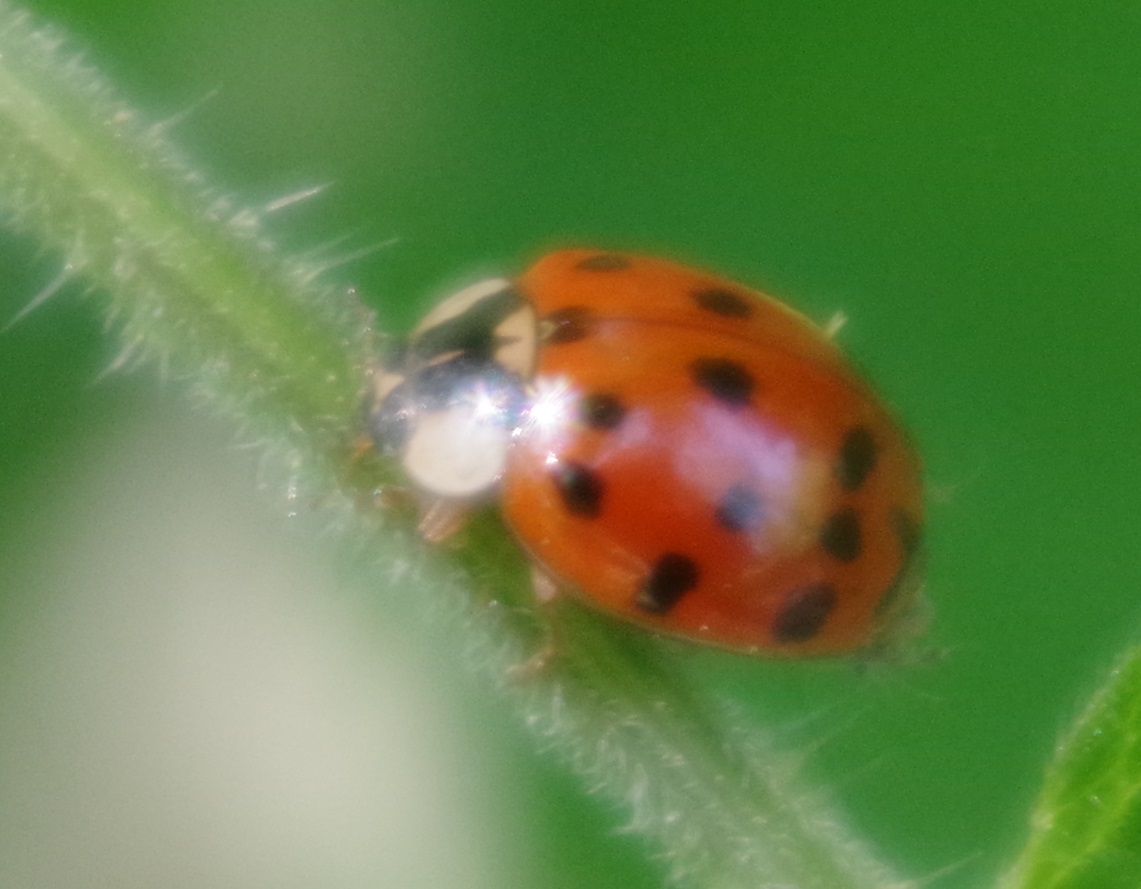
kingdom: Animalia
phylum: Arthropoda
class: Insecta
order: Coleoptera
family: Coccinellidae
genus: Harmonia
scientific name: Harmonia axyridis
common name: Harlequin ladybird
